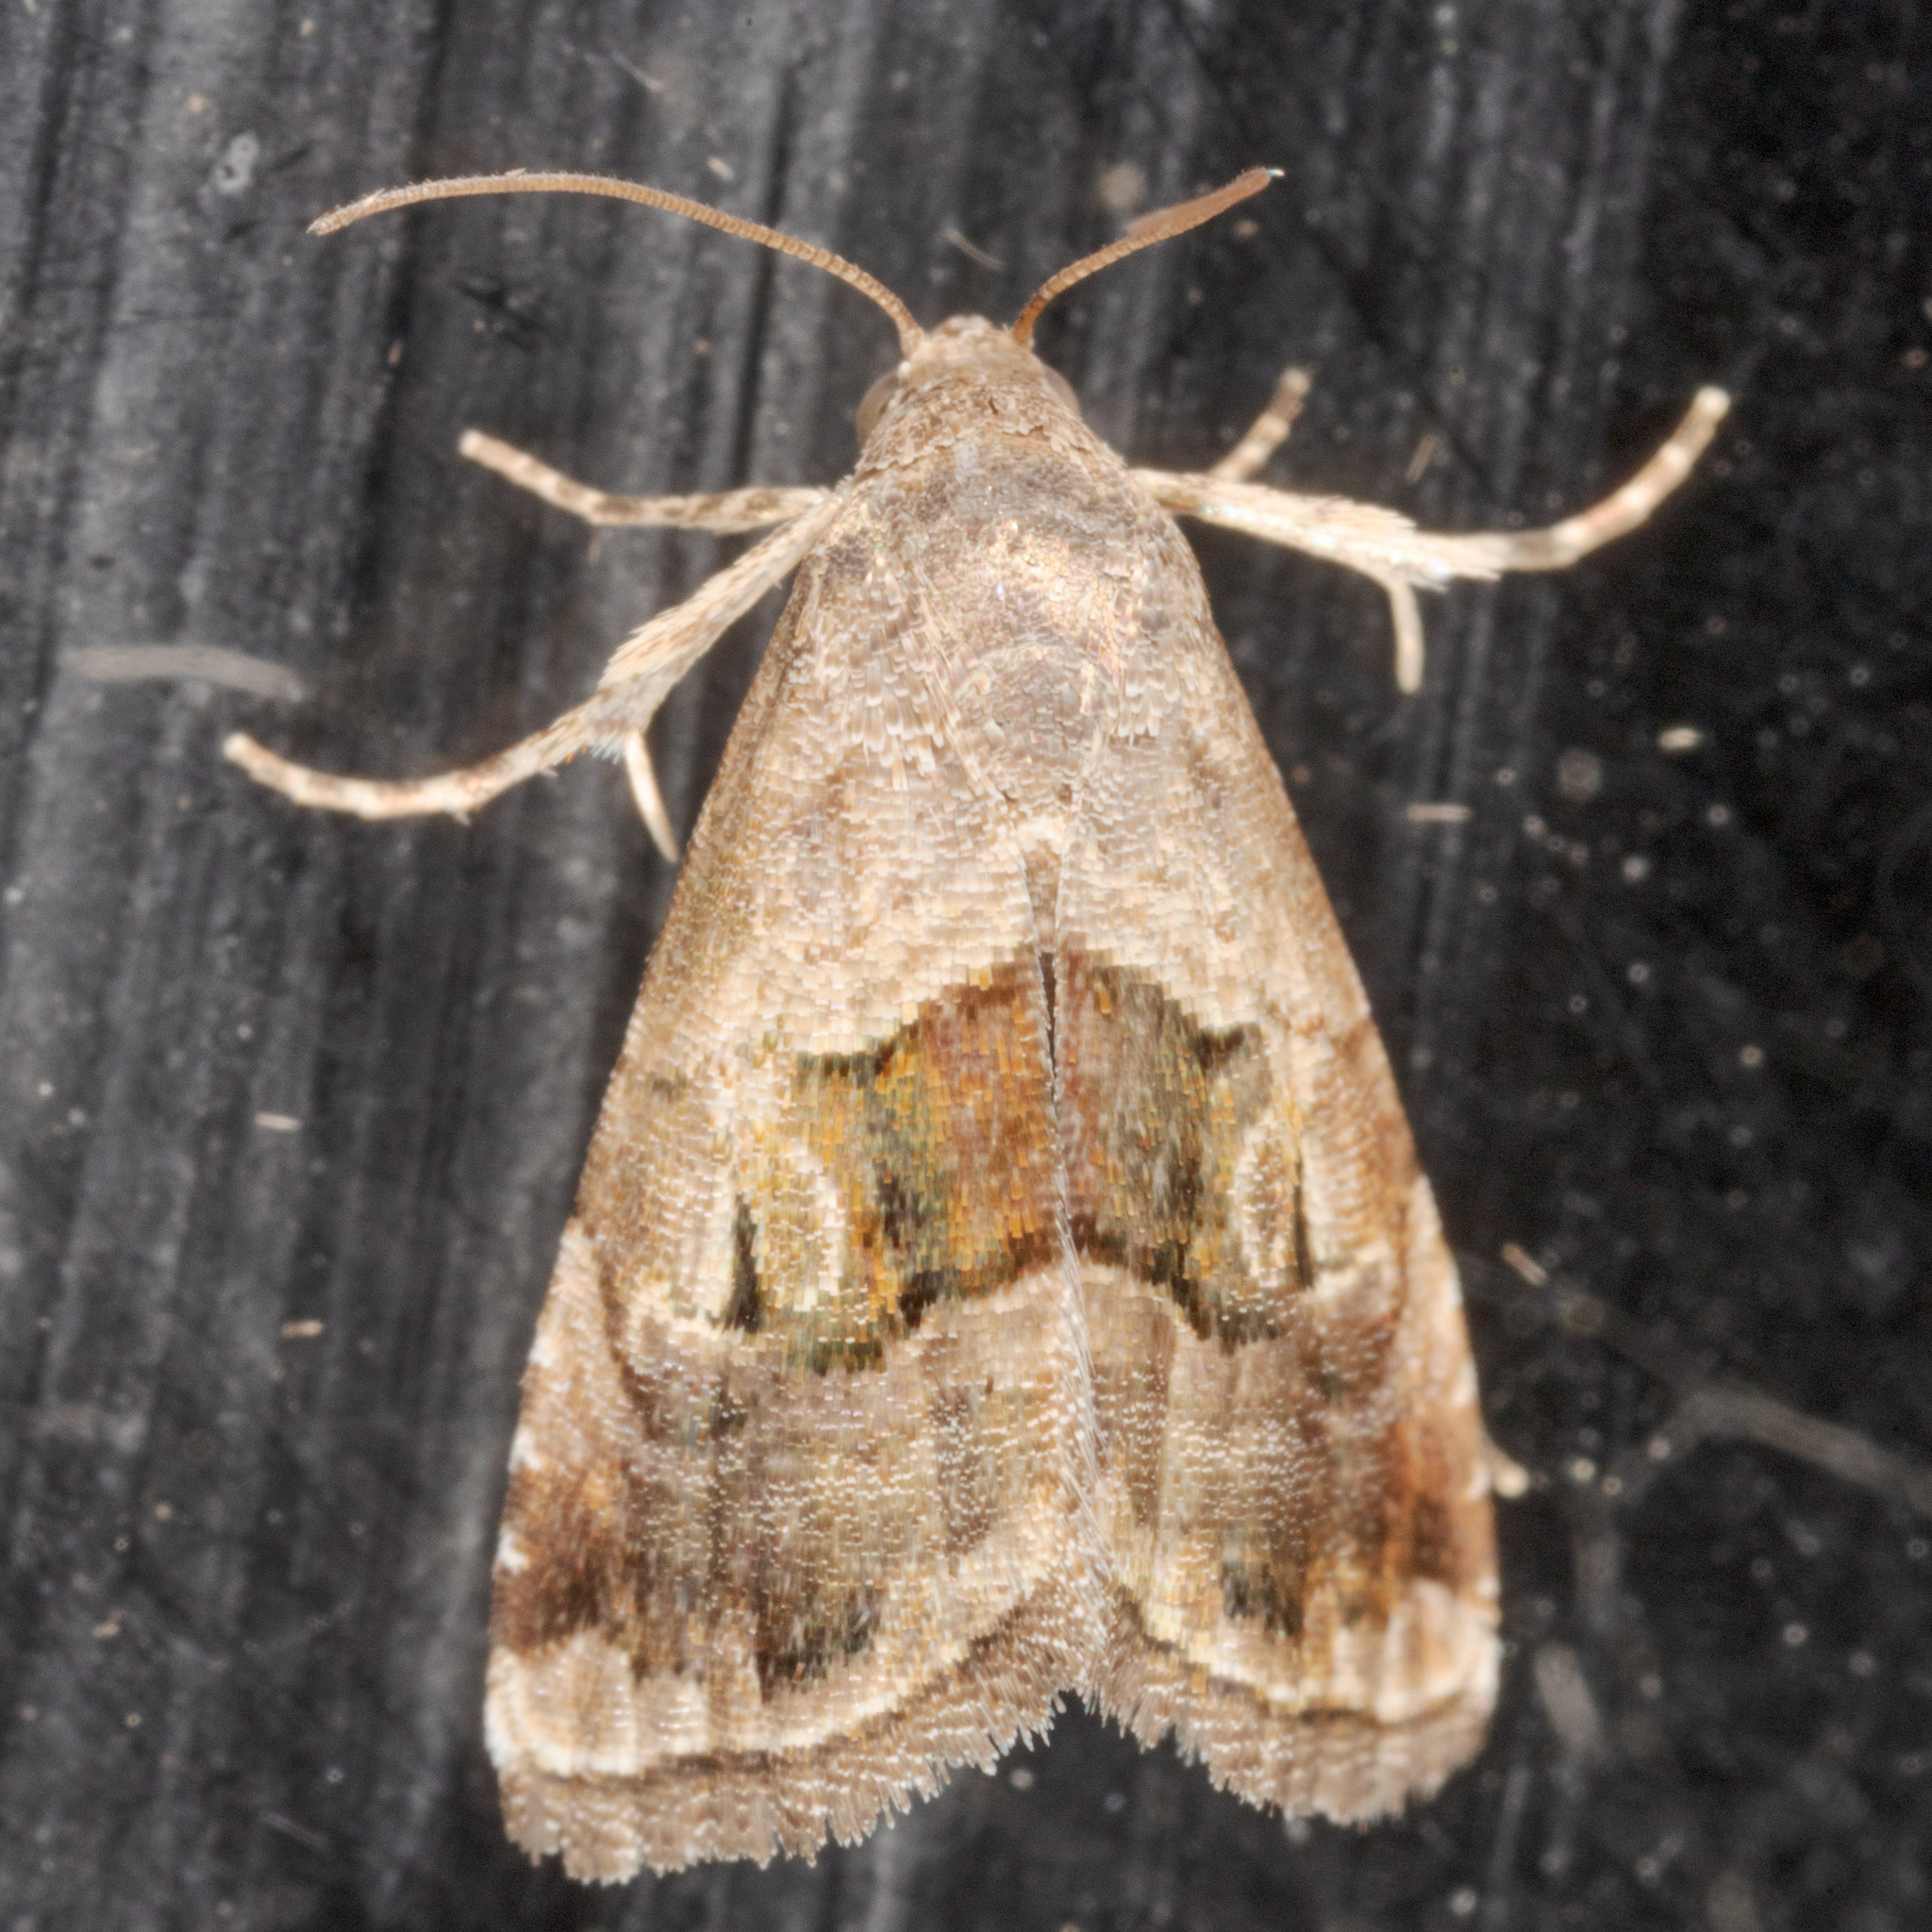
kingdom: Animalia
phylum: Arthropoda
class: Insecta
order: Lepidoptera
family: Noctuidae
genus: Tripudia
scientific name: Tripudia quadrifera
